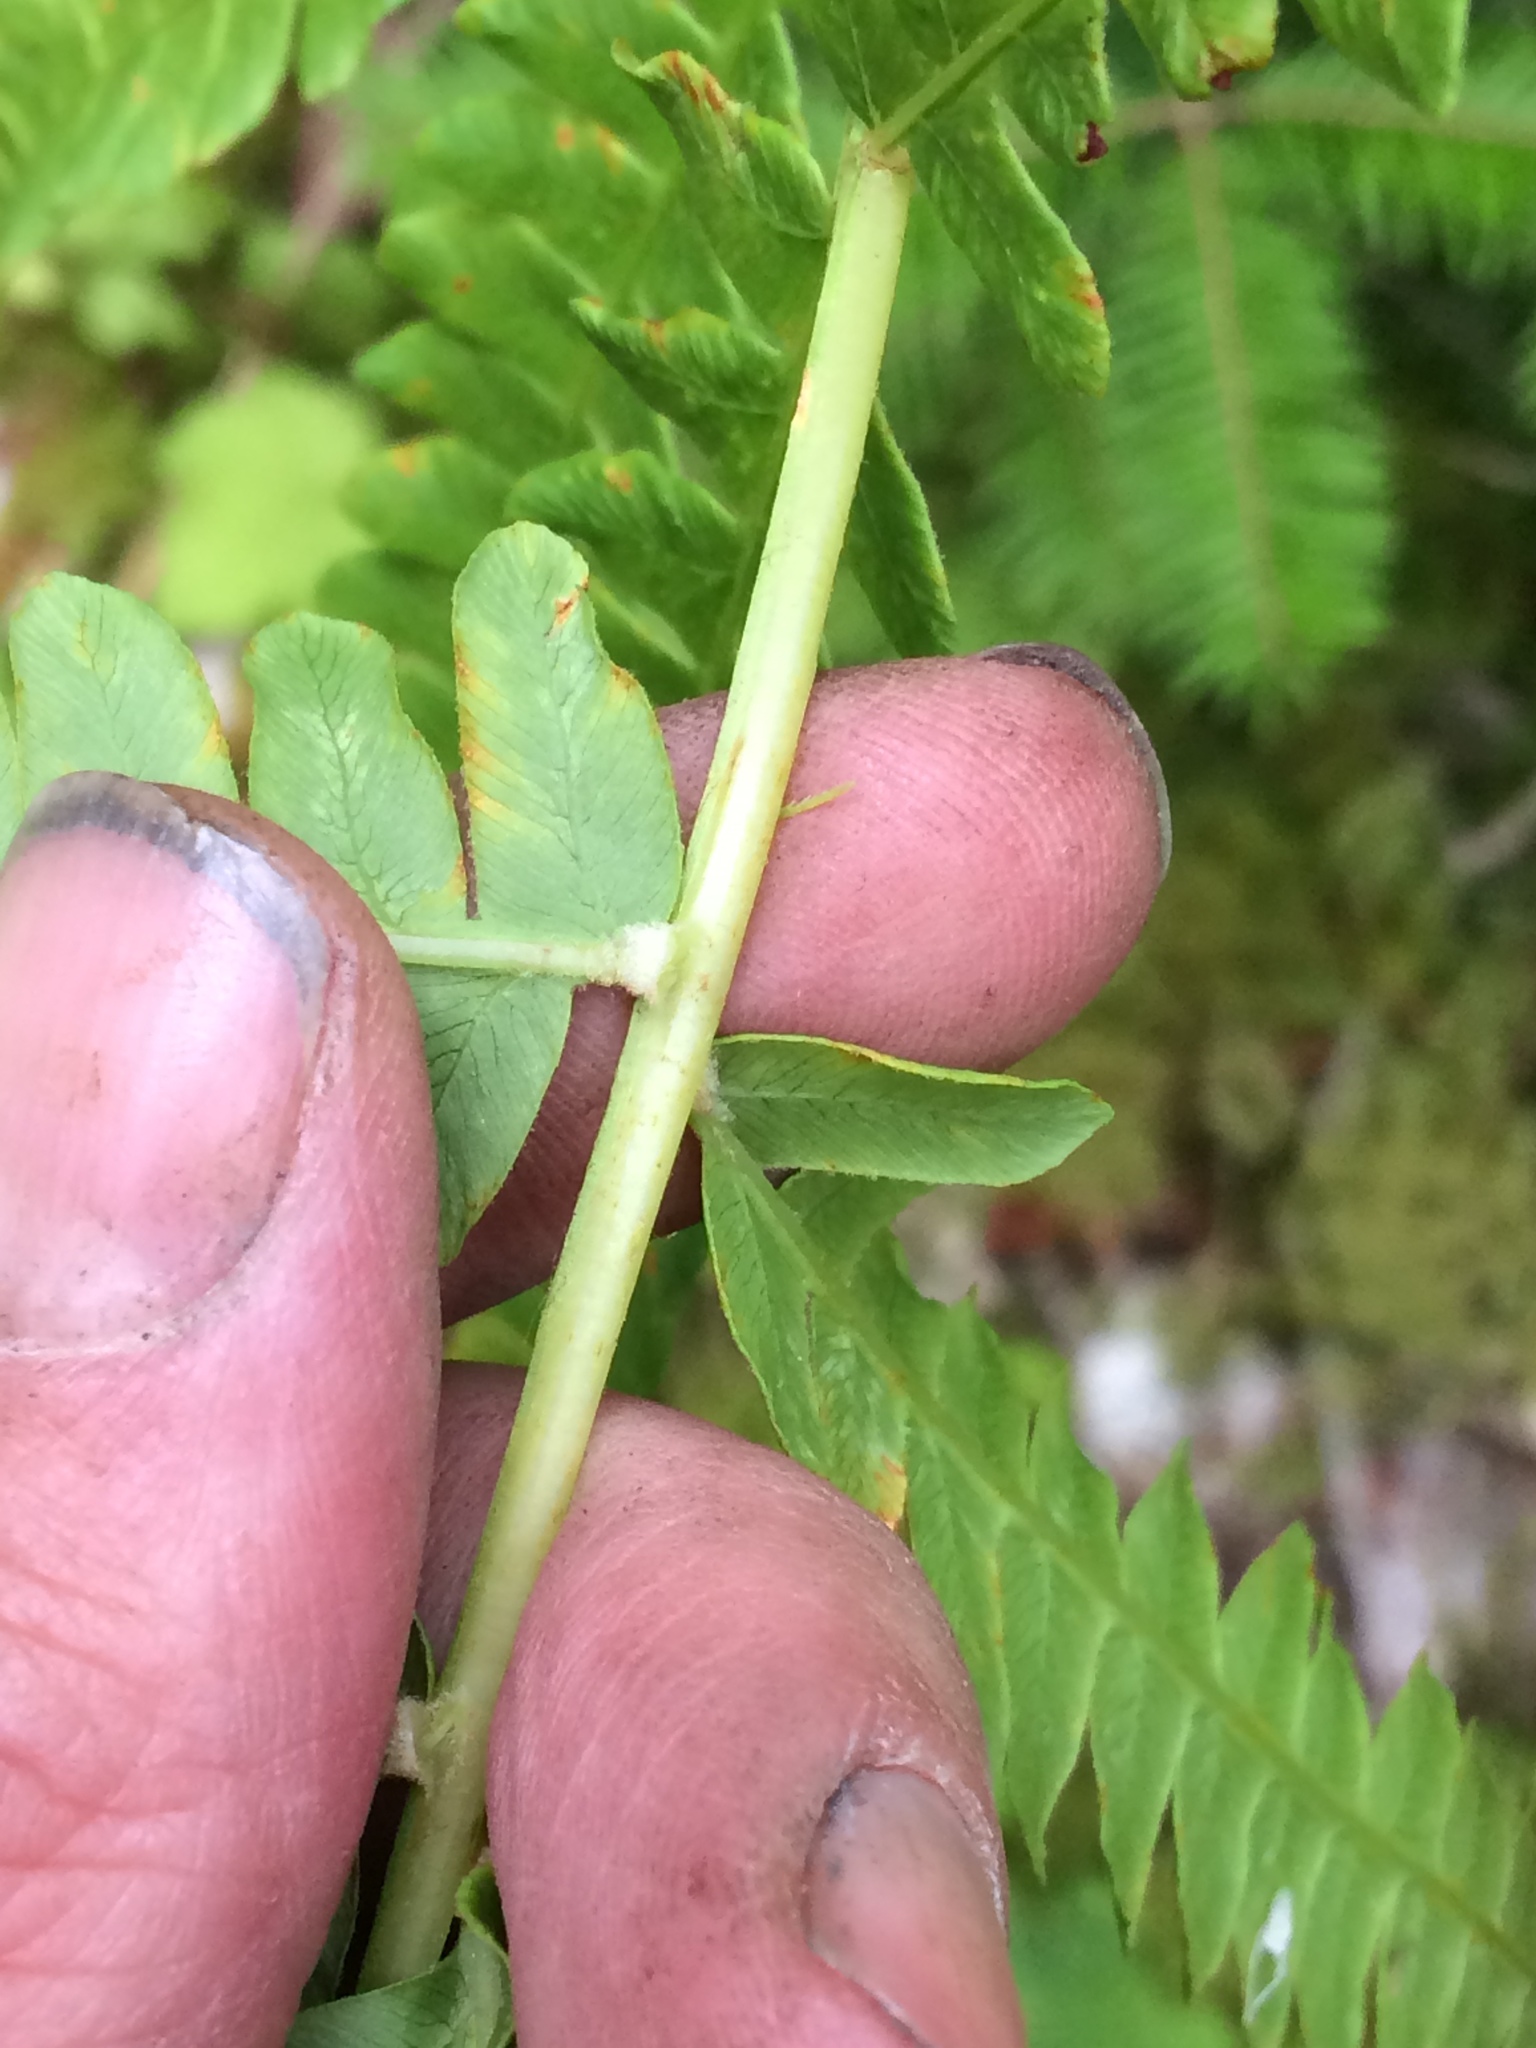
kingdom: Plantae
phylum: Tracheophyta
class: Polypodiopsida
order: Osmundales
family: Osmundaceae
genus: Osmundastrum
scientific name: Osmundastrum cinnamomeum
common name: Cinnamon fern
